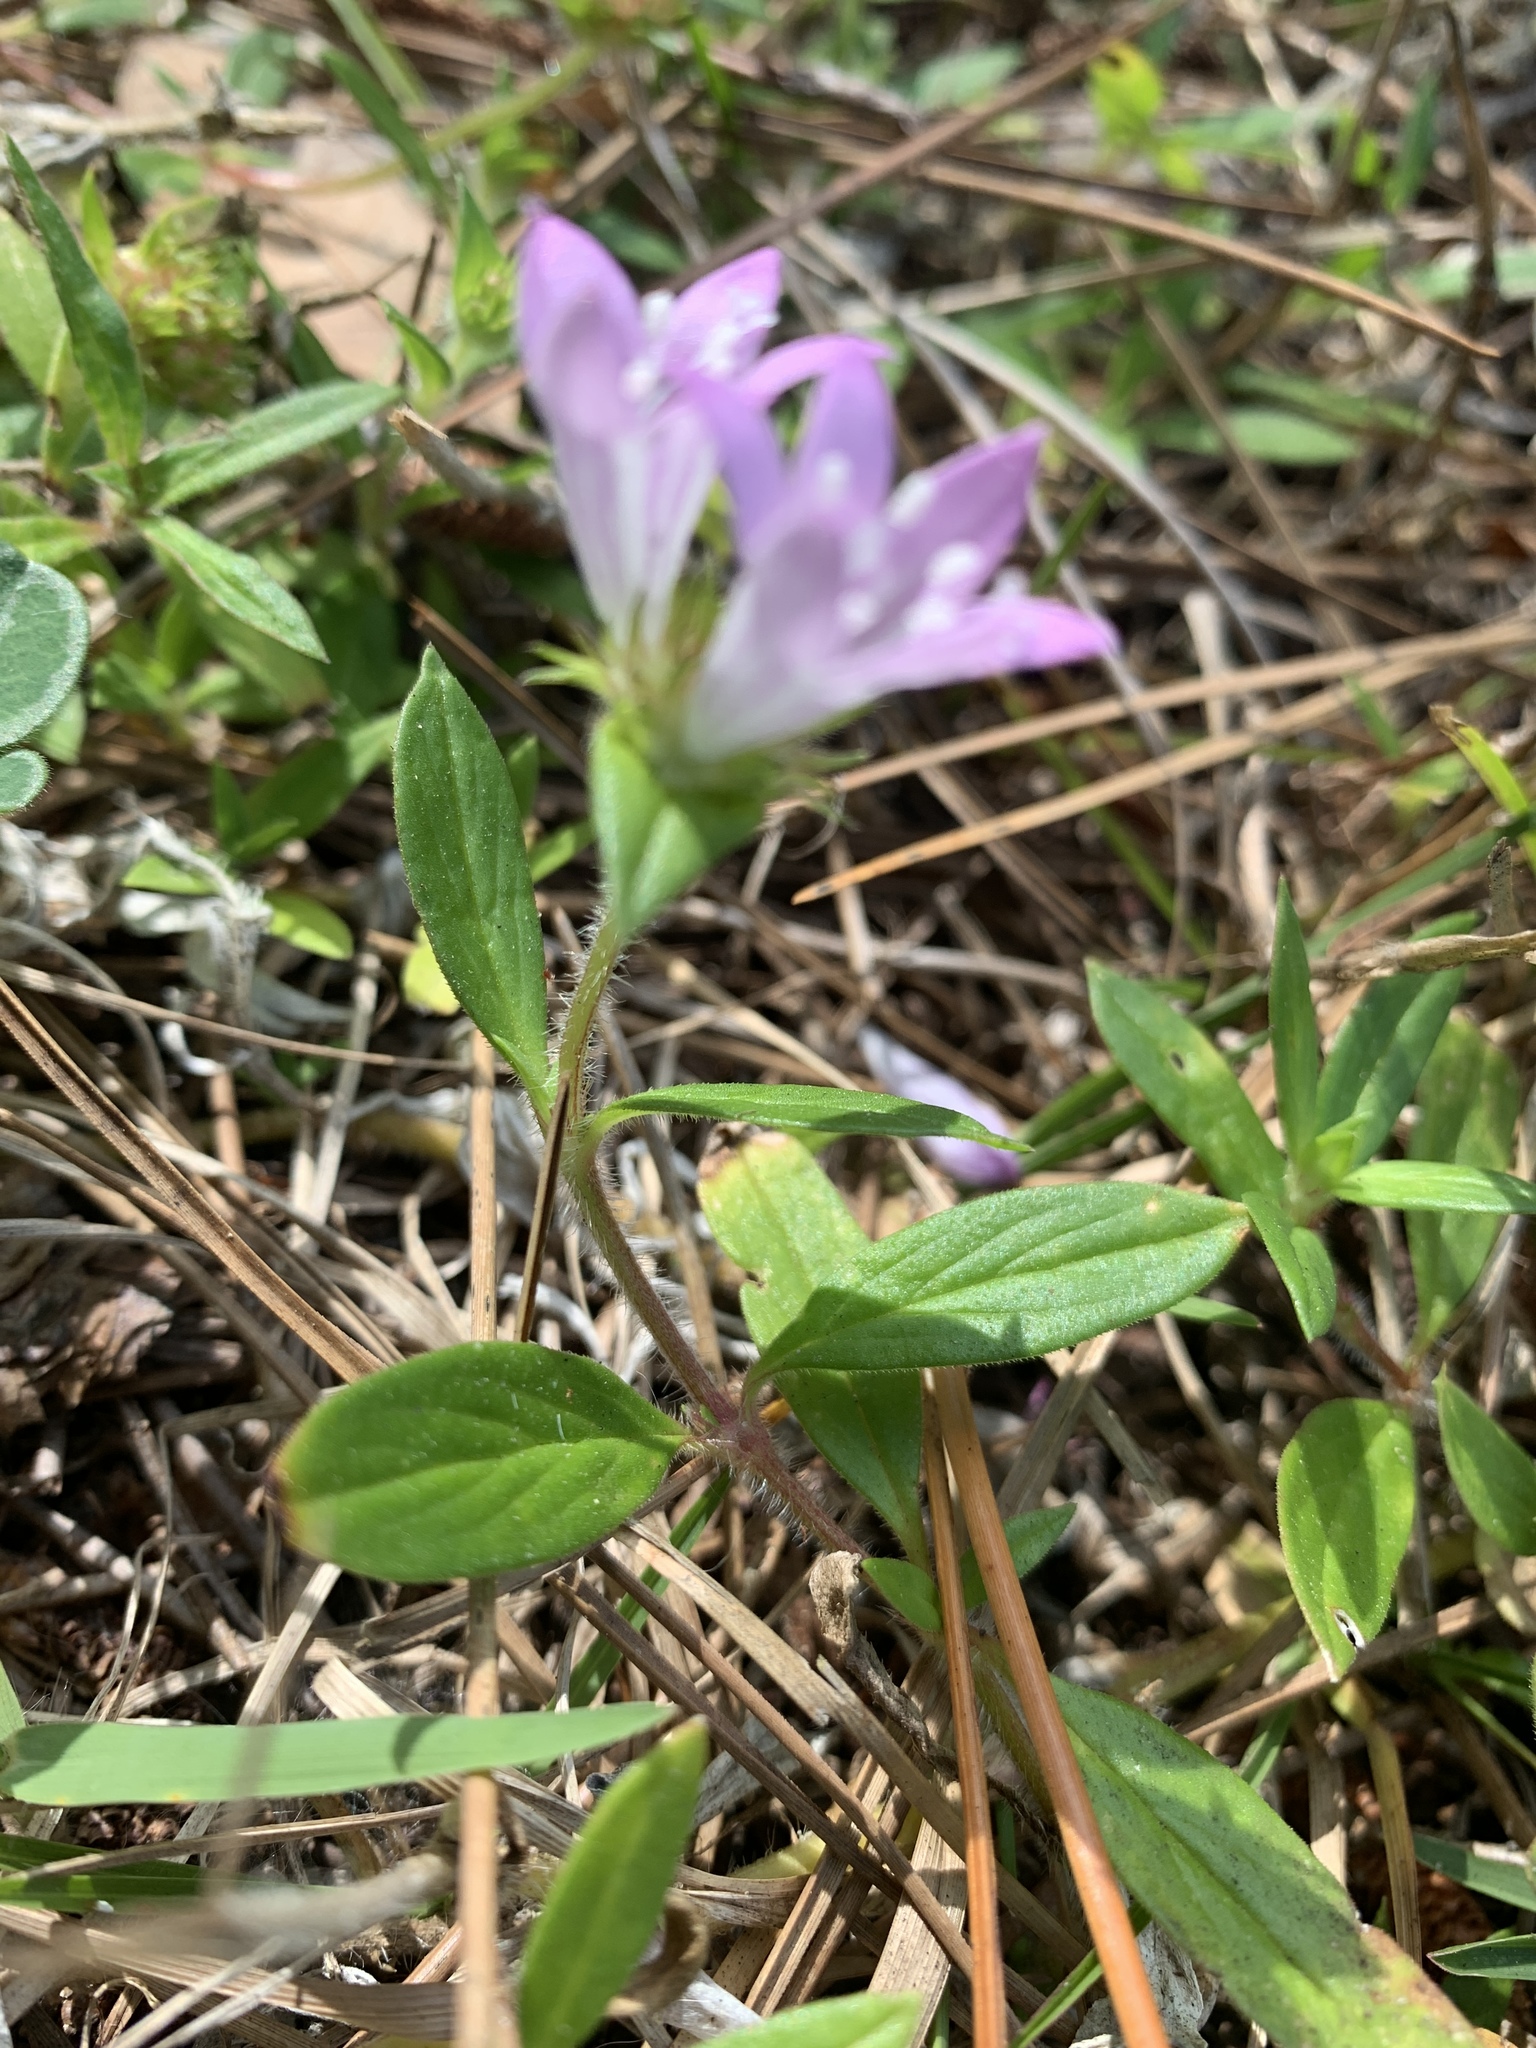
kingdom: Plantae
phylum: Tracheophyta
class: Magnoliopsida
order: Gentianales
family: Rubiaceae
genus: Richardia
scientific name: Richardia grandiflora
